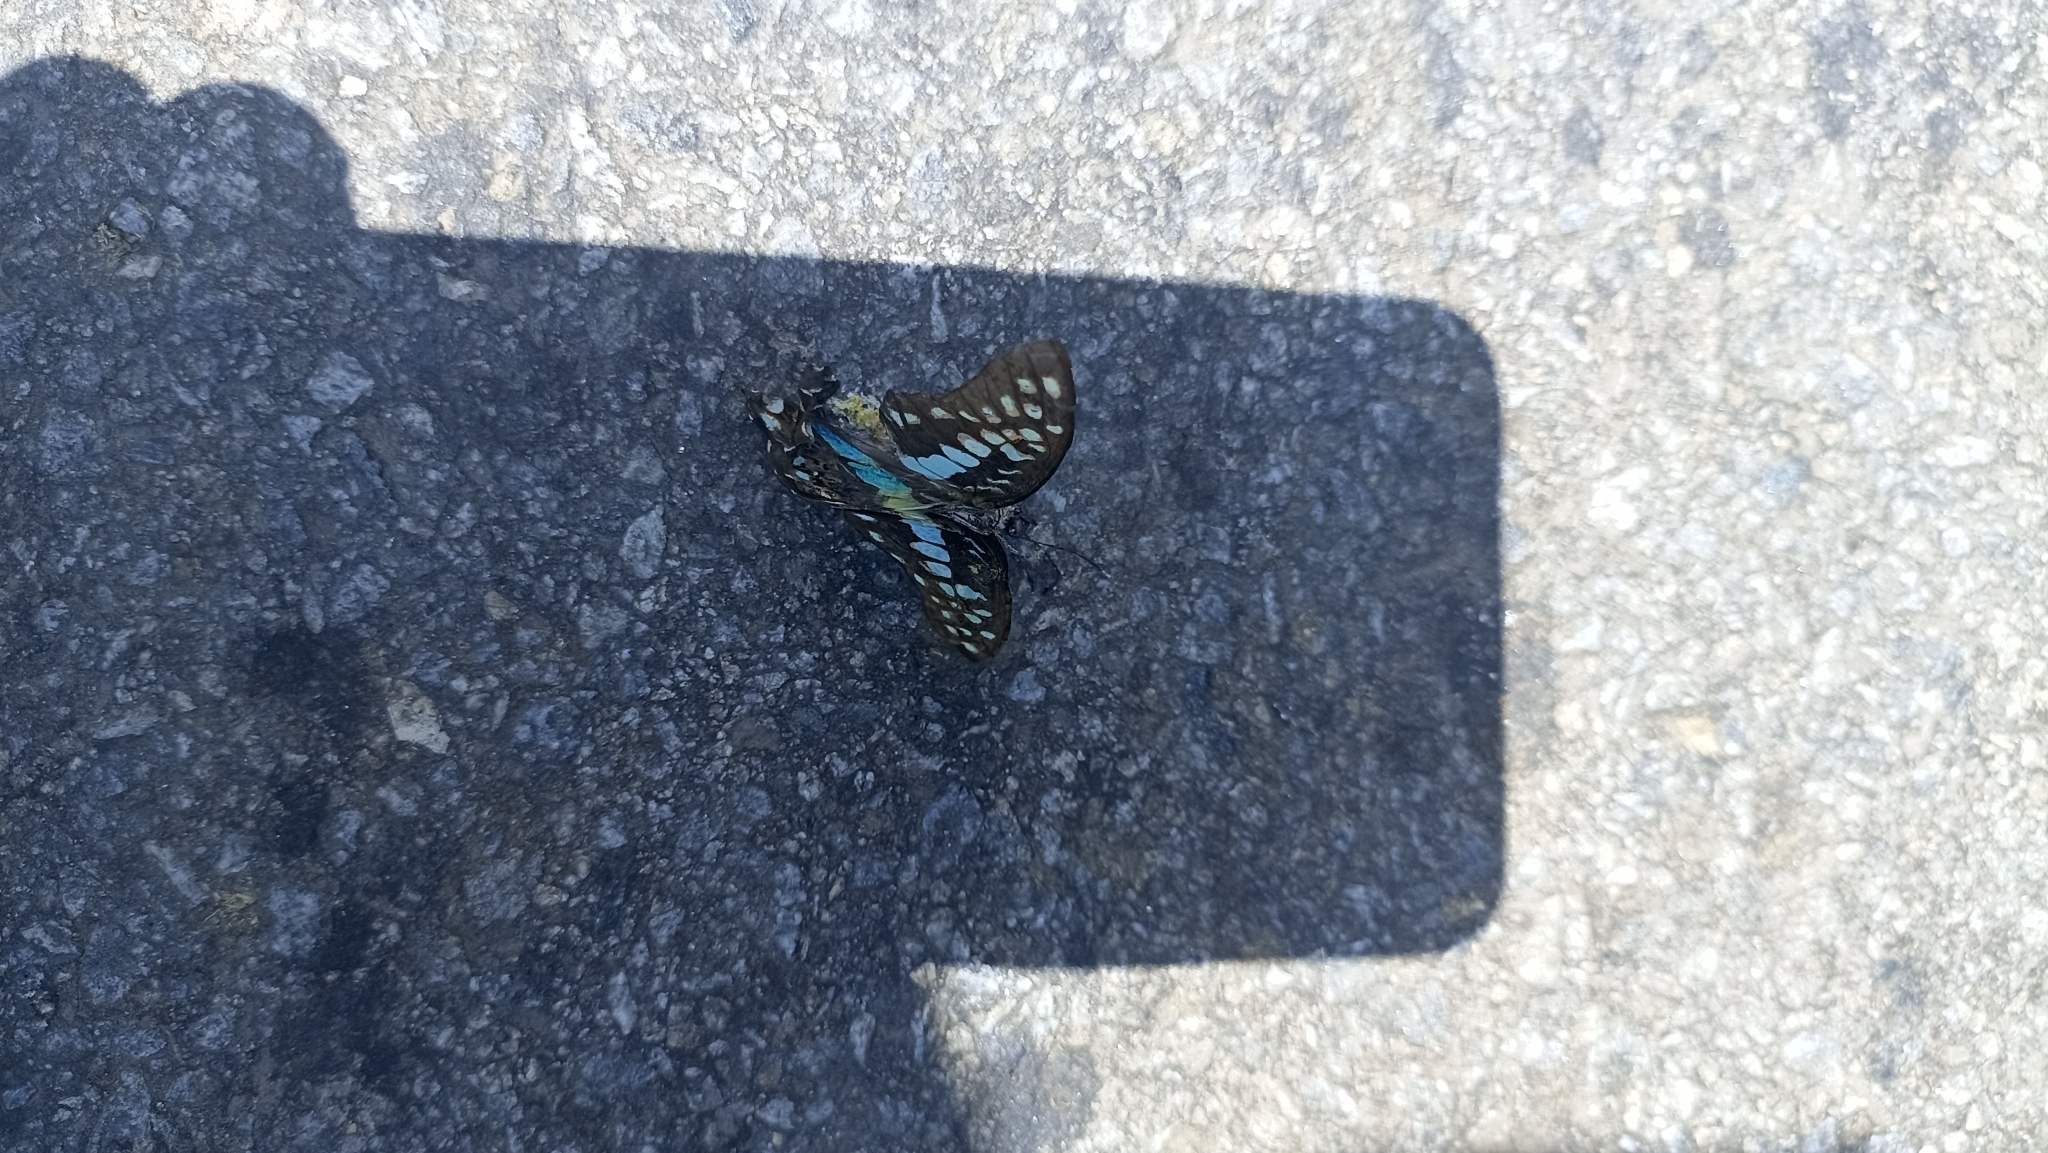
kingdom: Animalia
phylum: Arthropoda
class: Insecta
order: Lepidoptera
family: Papilionidae
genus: Graphium
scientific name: Graphium doson
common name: Common jay
